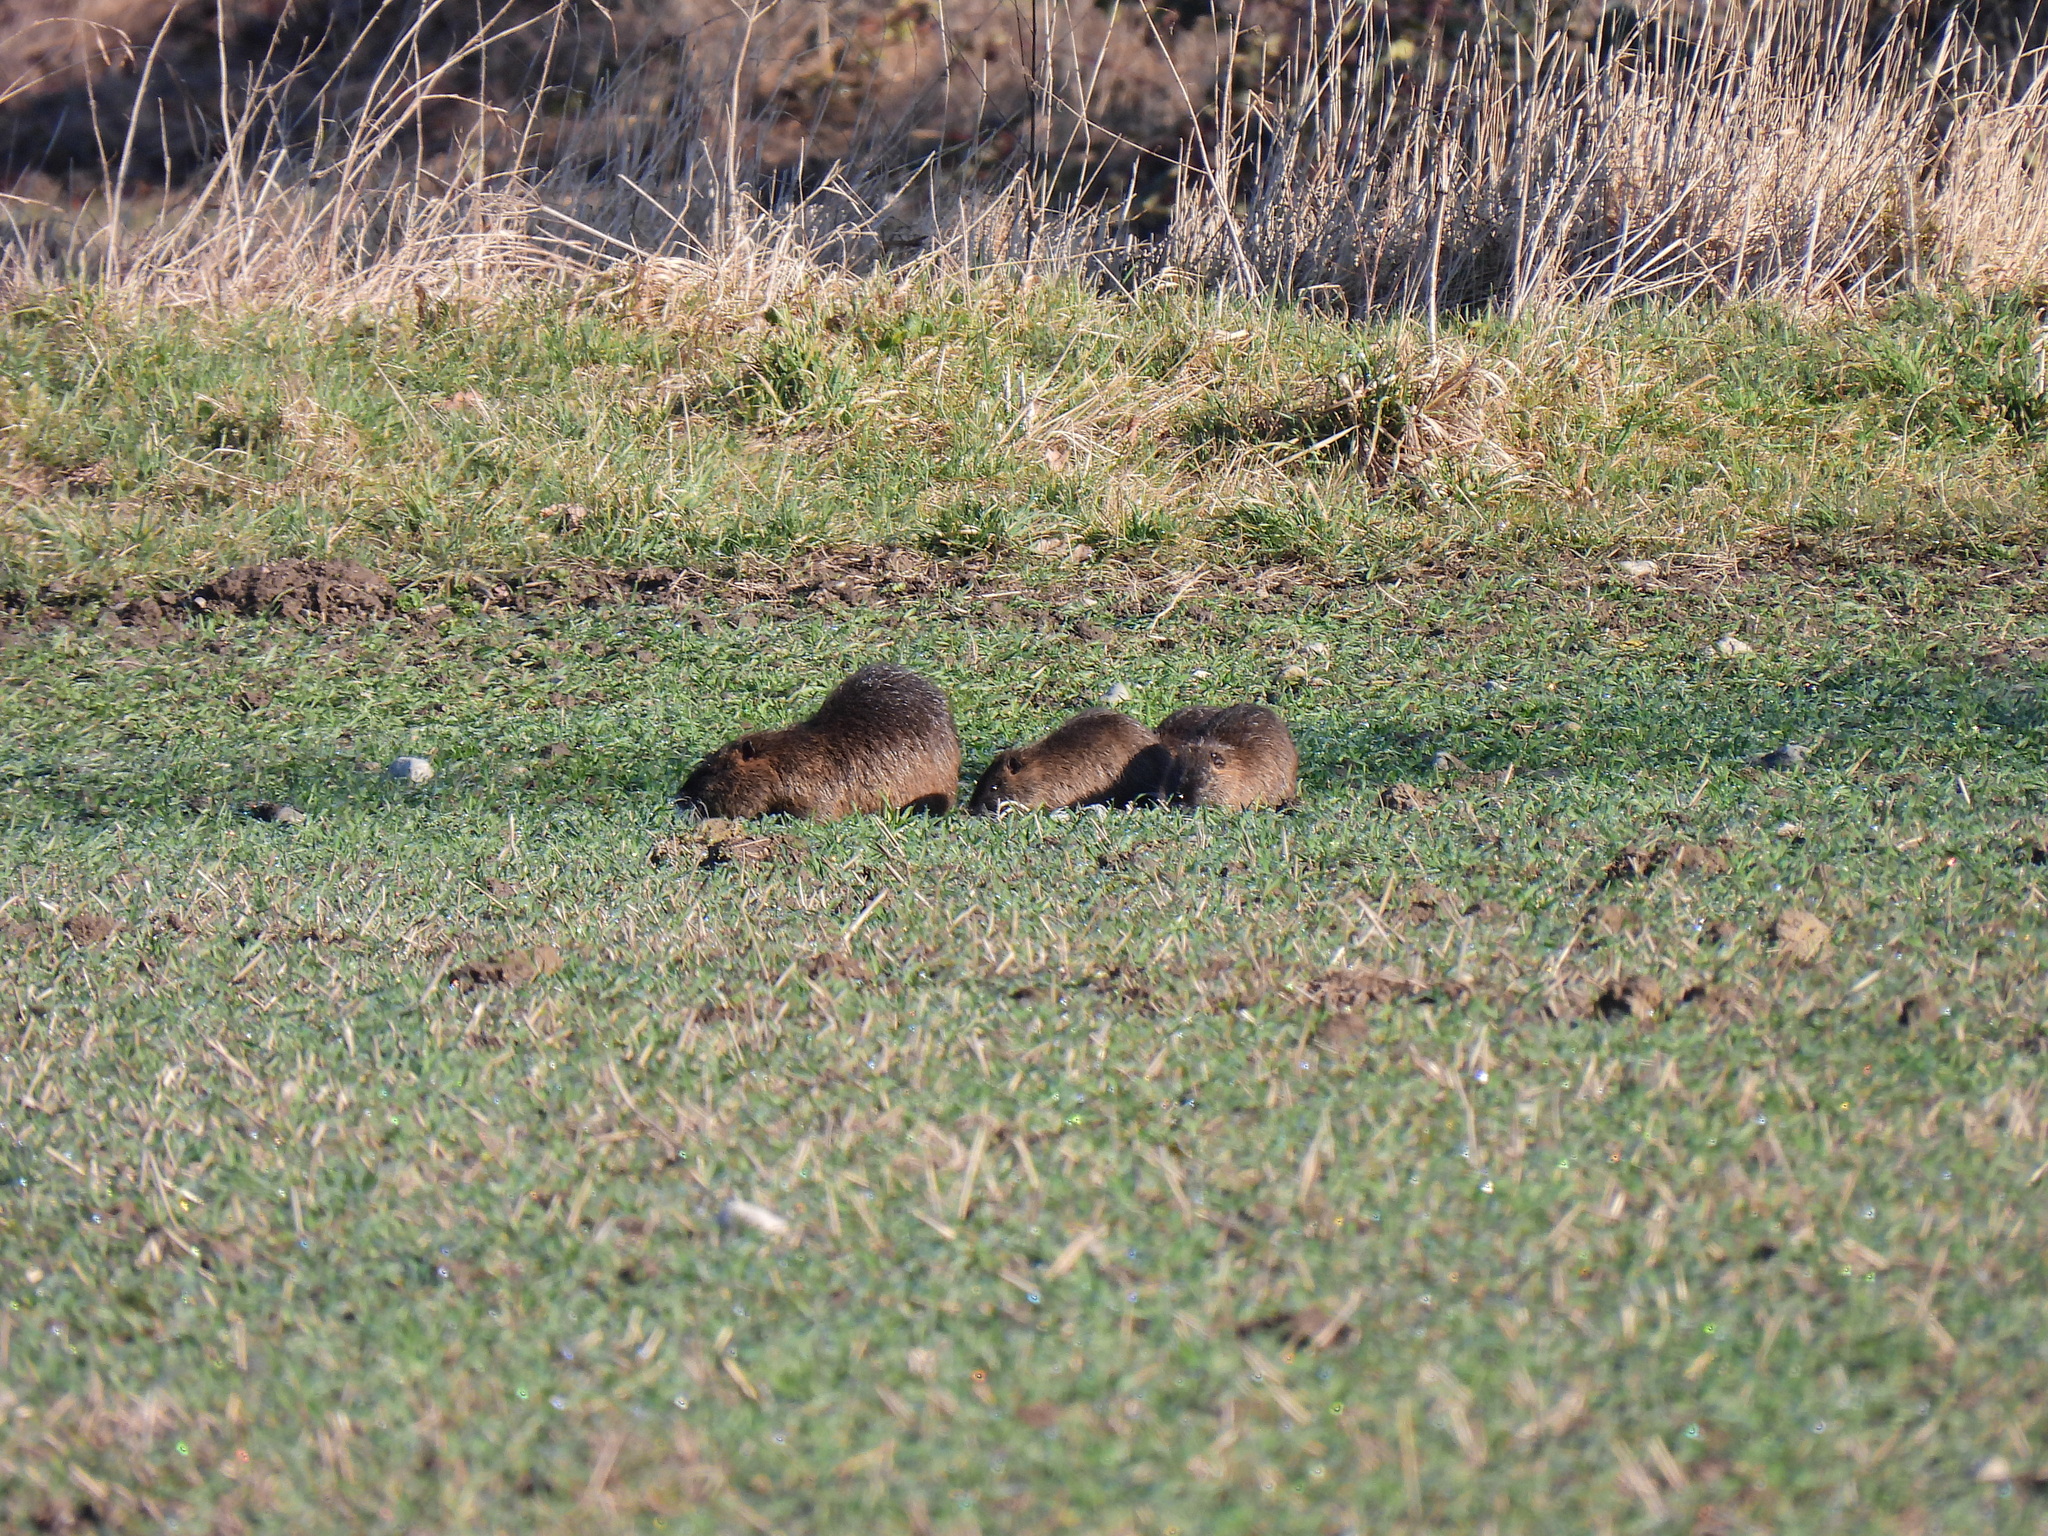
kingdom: Animalia
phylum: Chordata
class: Mammalia
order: Rodentia
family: Myocastoridae
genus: Myocastor
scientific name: Myocastor coypus
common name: Coypu
